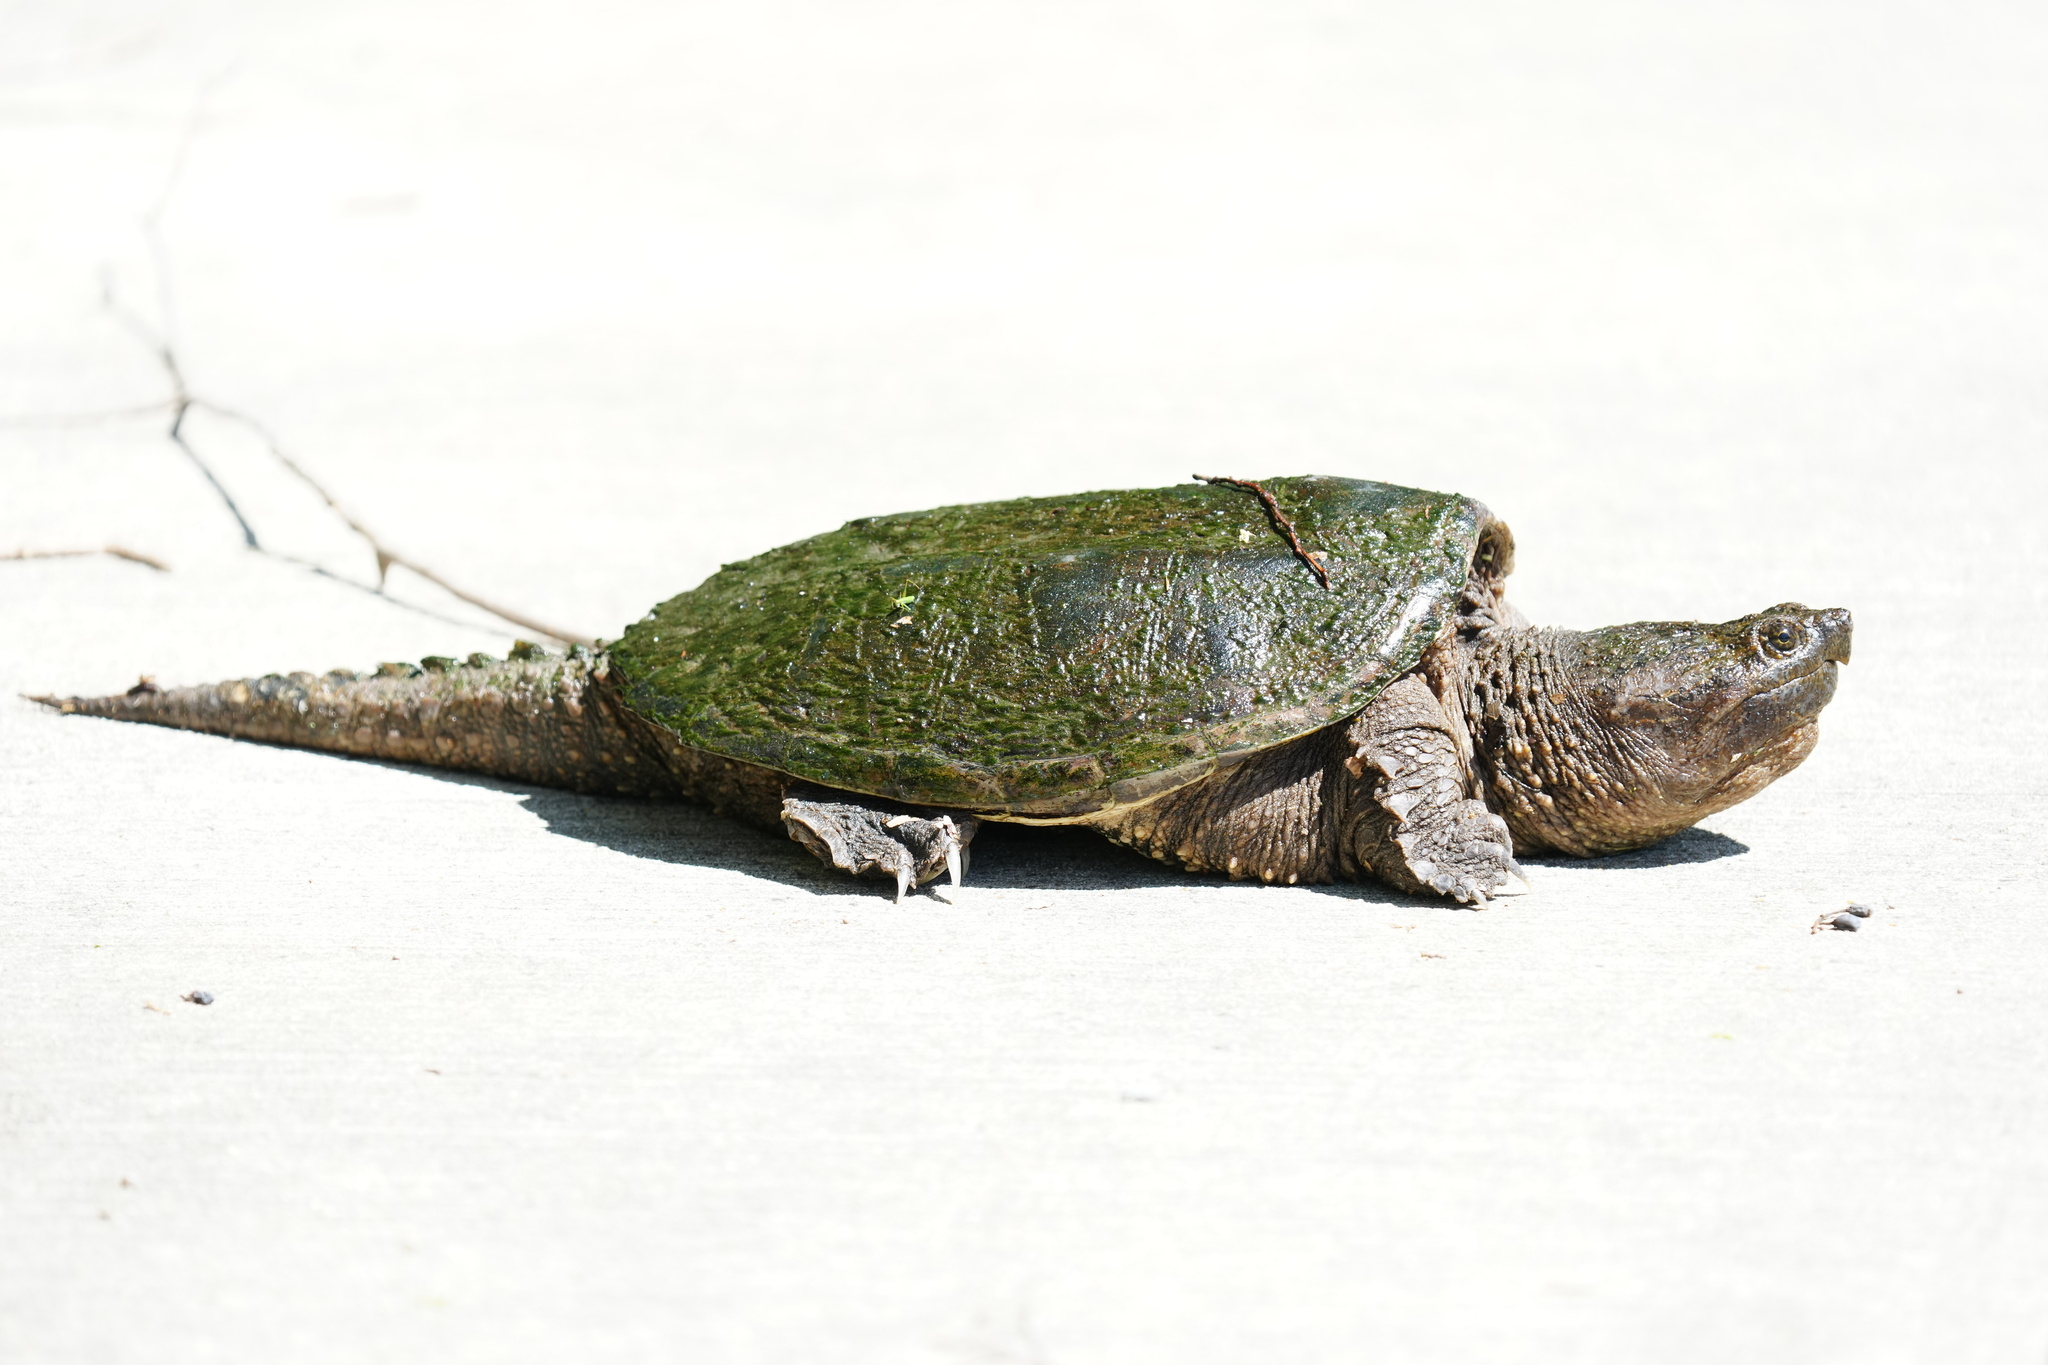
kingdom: Animalia
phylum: Chordata
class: Testudines
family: Chelydridae
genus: Chelydra
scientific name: Chelydra serpentina
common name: Common snapping turtle
